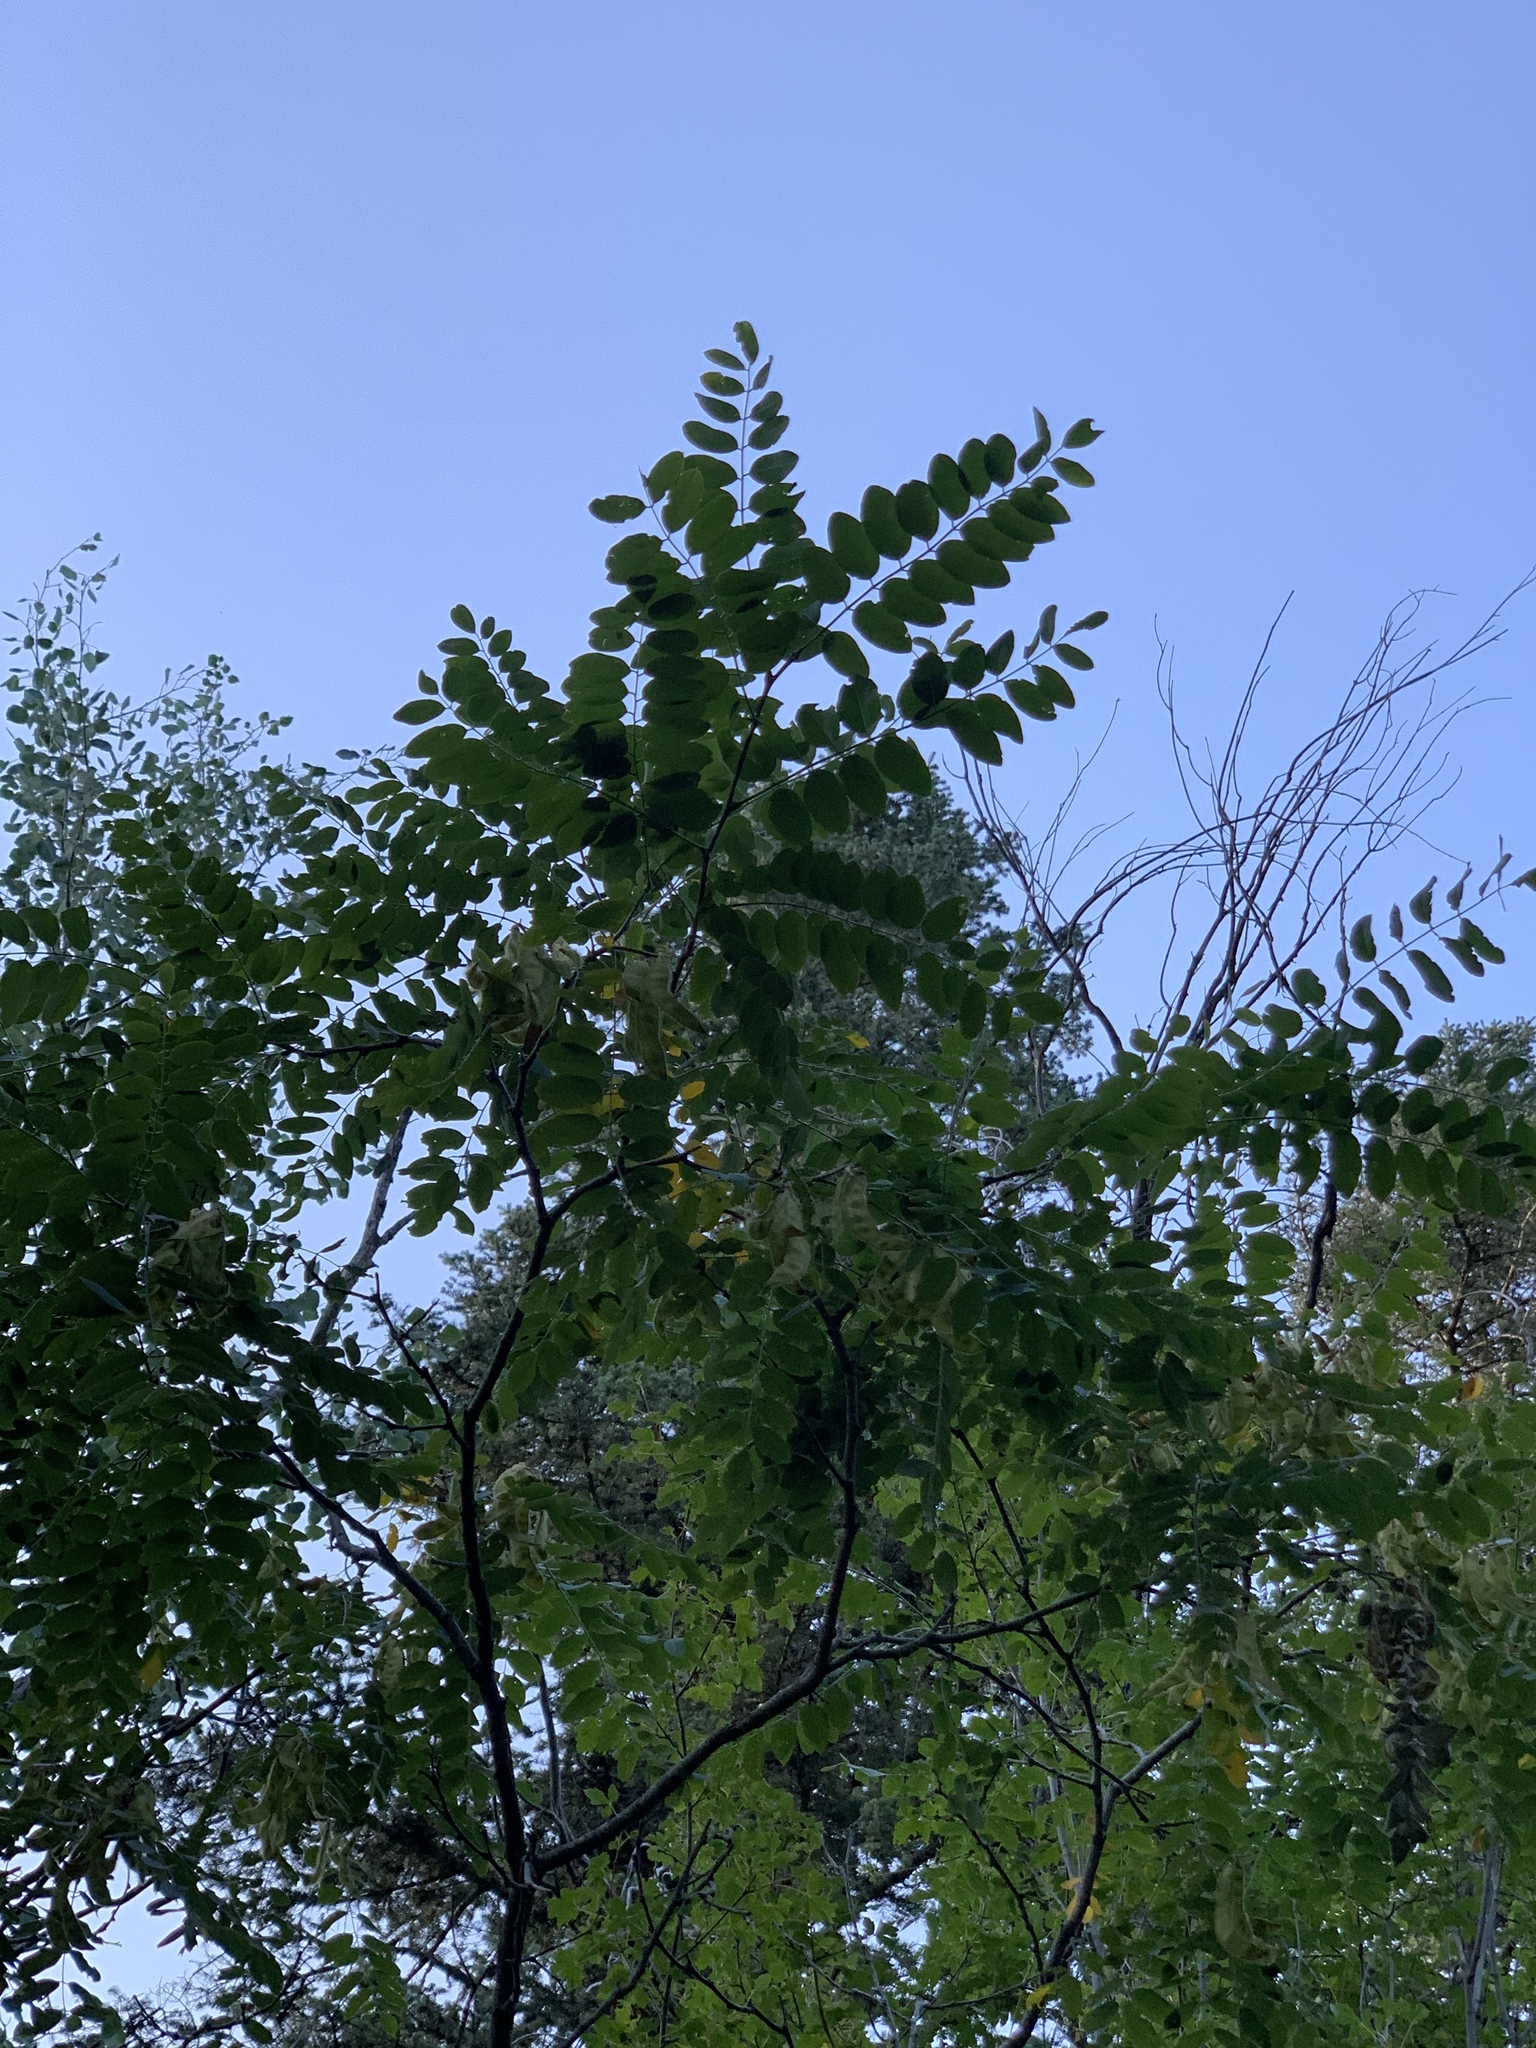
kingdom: Plantae
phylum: Tracheophyta
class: Magnoliopsida
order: Fabales
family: Fabaceae
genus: Robinia
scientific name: Robinia neomexicana
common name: New mexico locust
